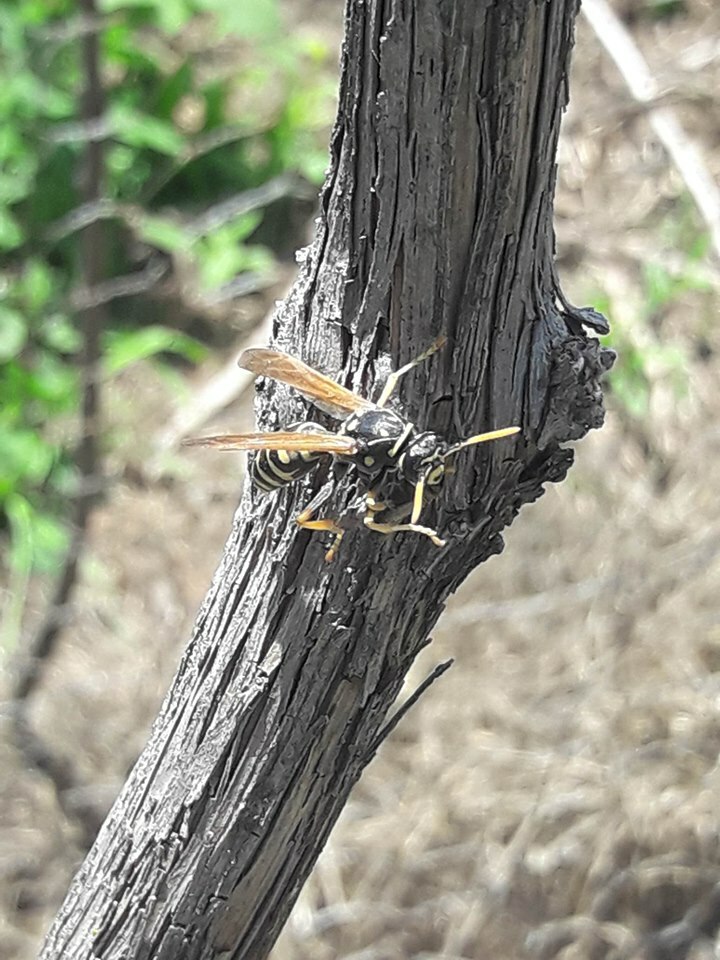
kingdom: Animalia
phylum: Arthropoda
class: Insecta
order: Hymenoptera
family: Eumenidae
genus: Polistes
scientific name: Polistes dominula
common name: Paper wasp
